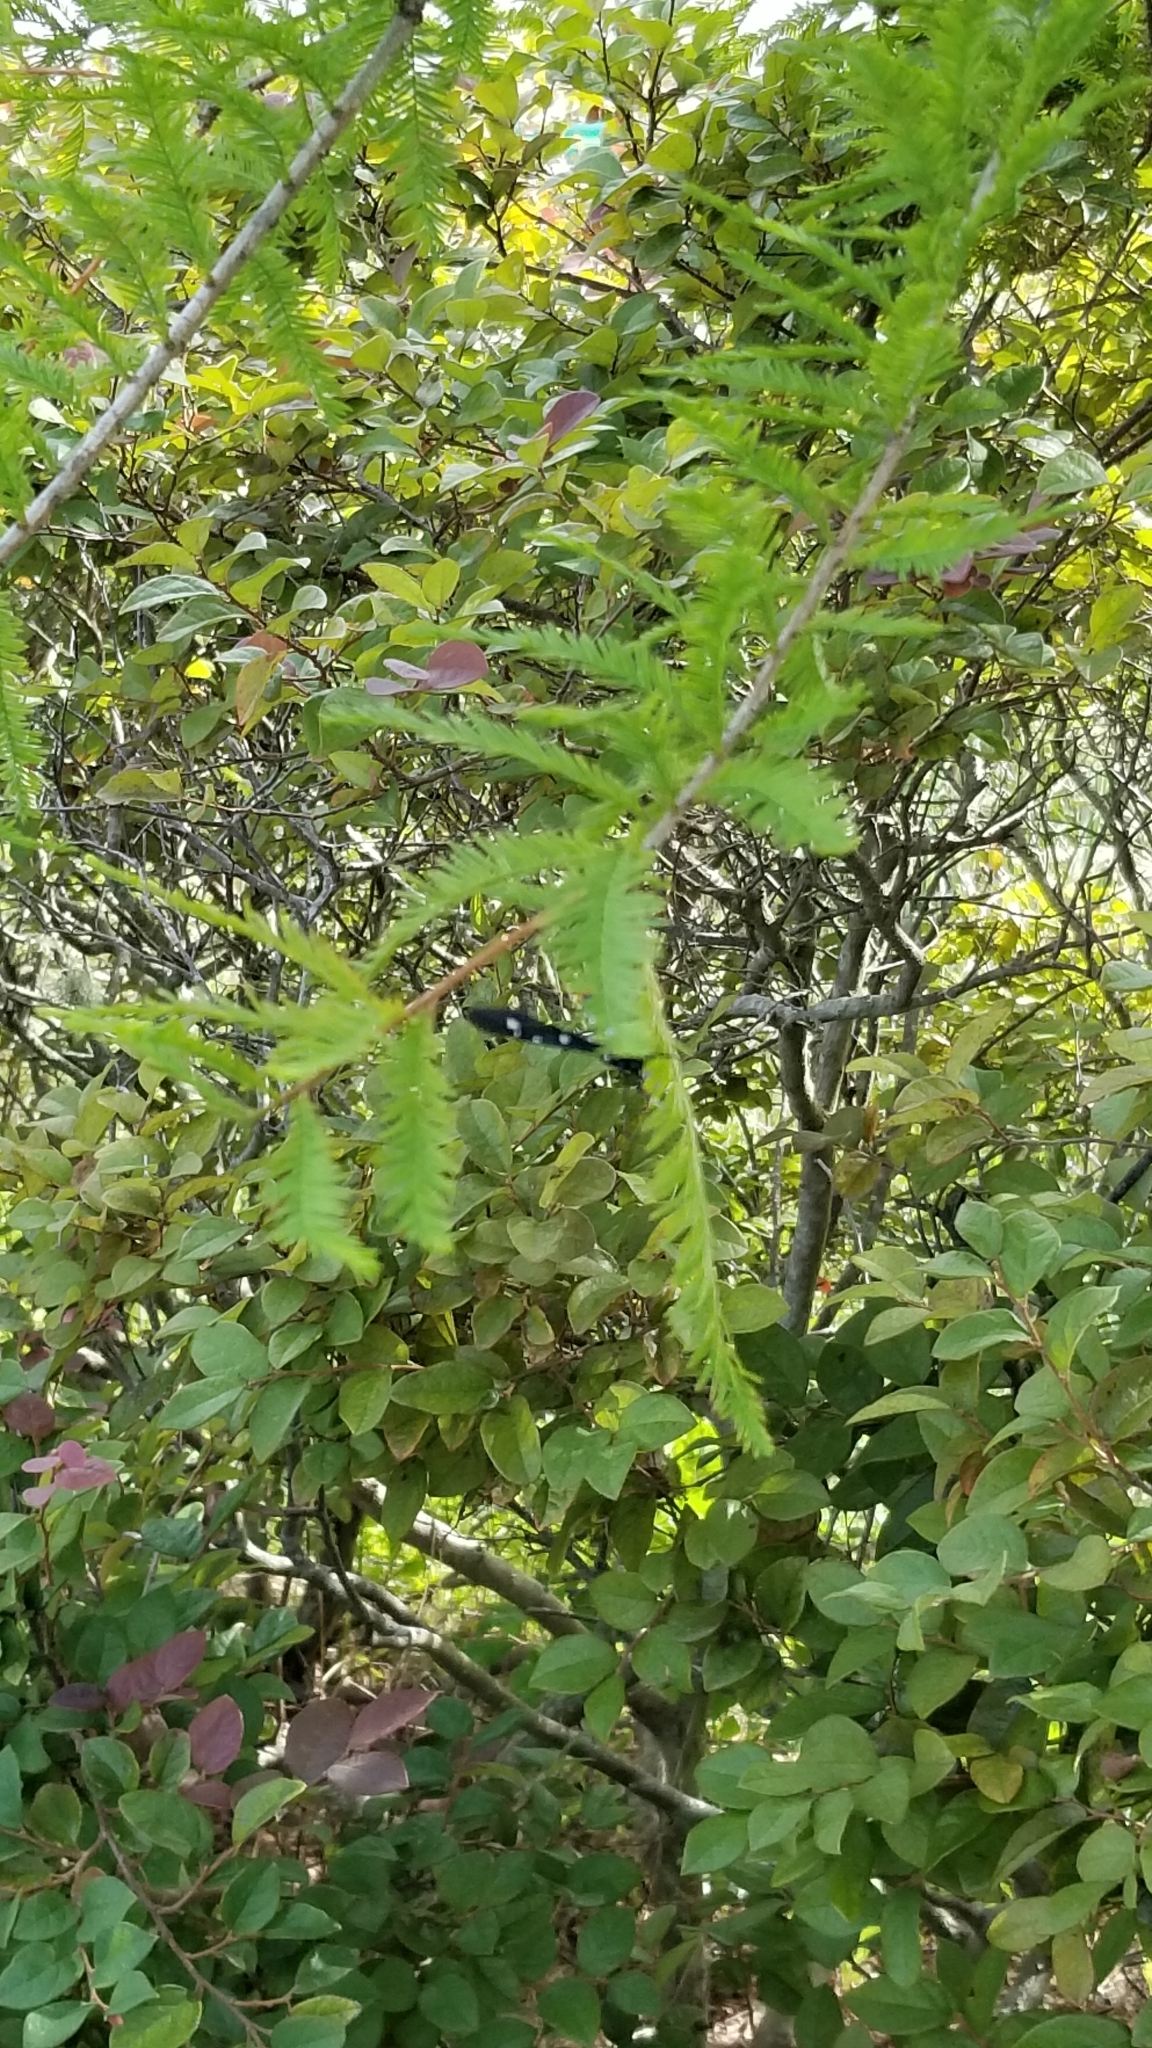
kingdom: Animalia
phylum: Arthropoda
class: Insecta
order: Lepidoptera
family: Erebidae
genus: Syntomeida
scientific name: Syntomeida epilais
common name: Polka-dot wasp moth
